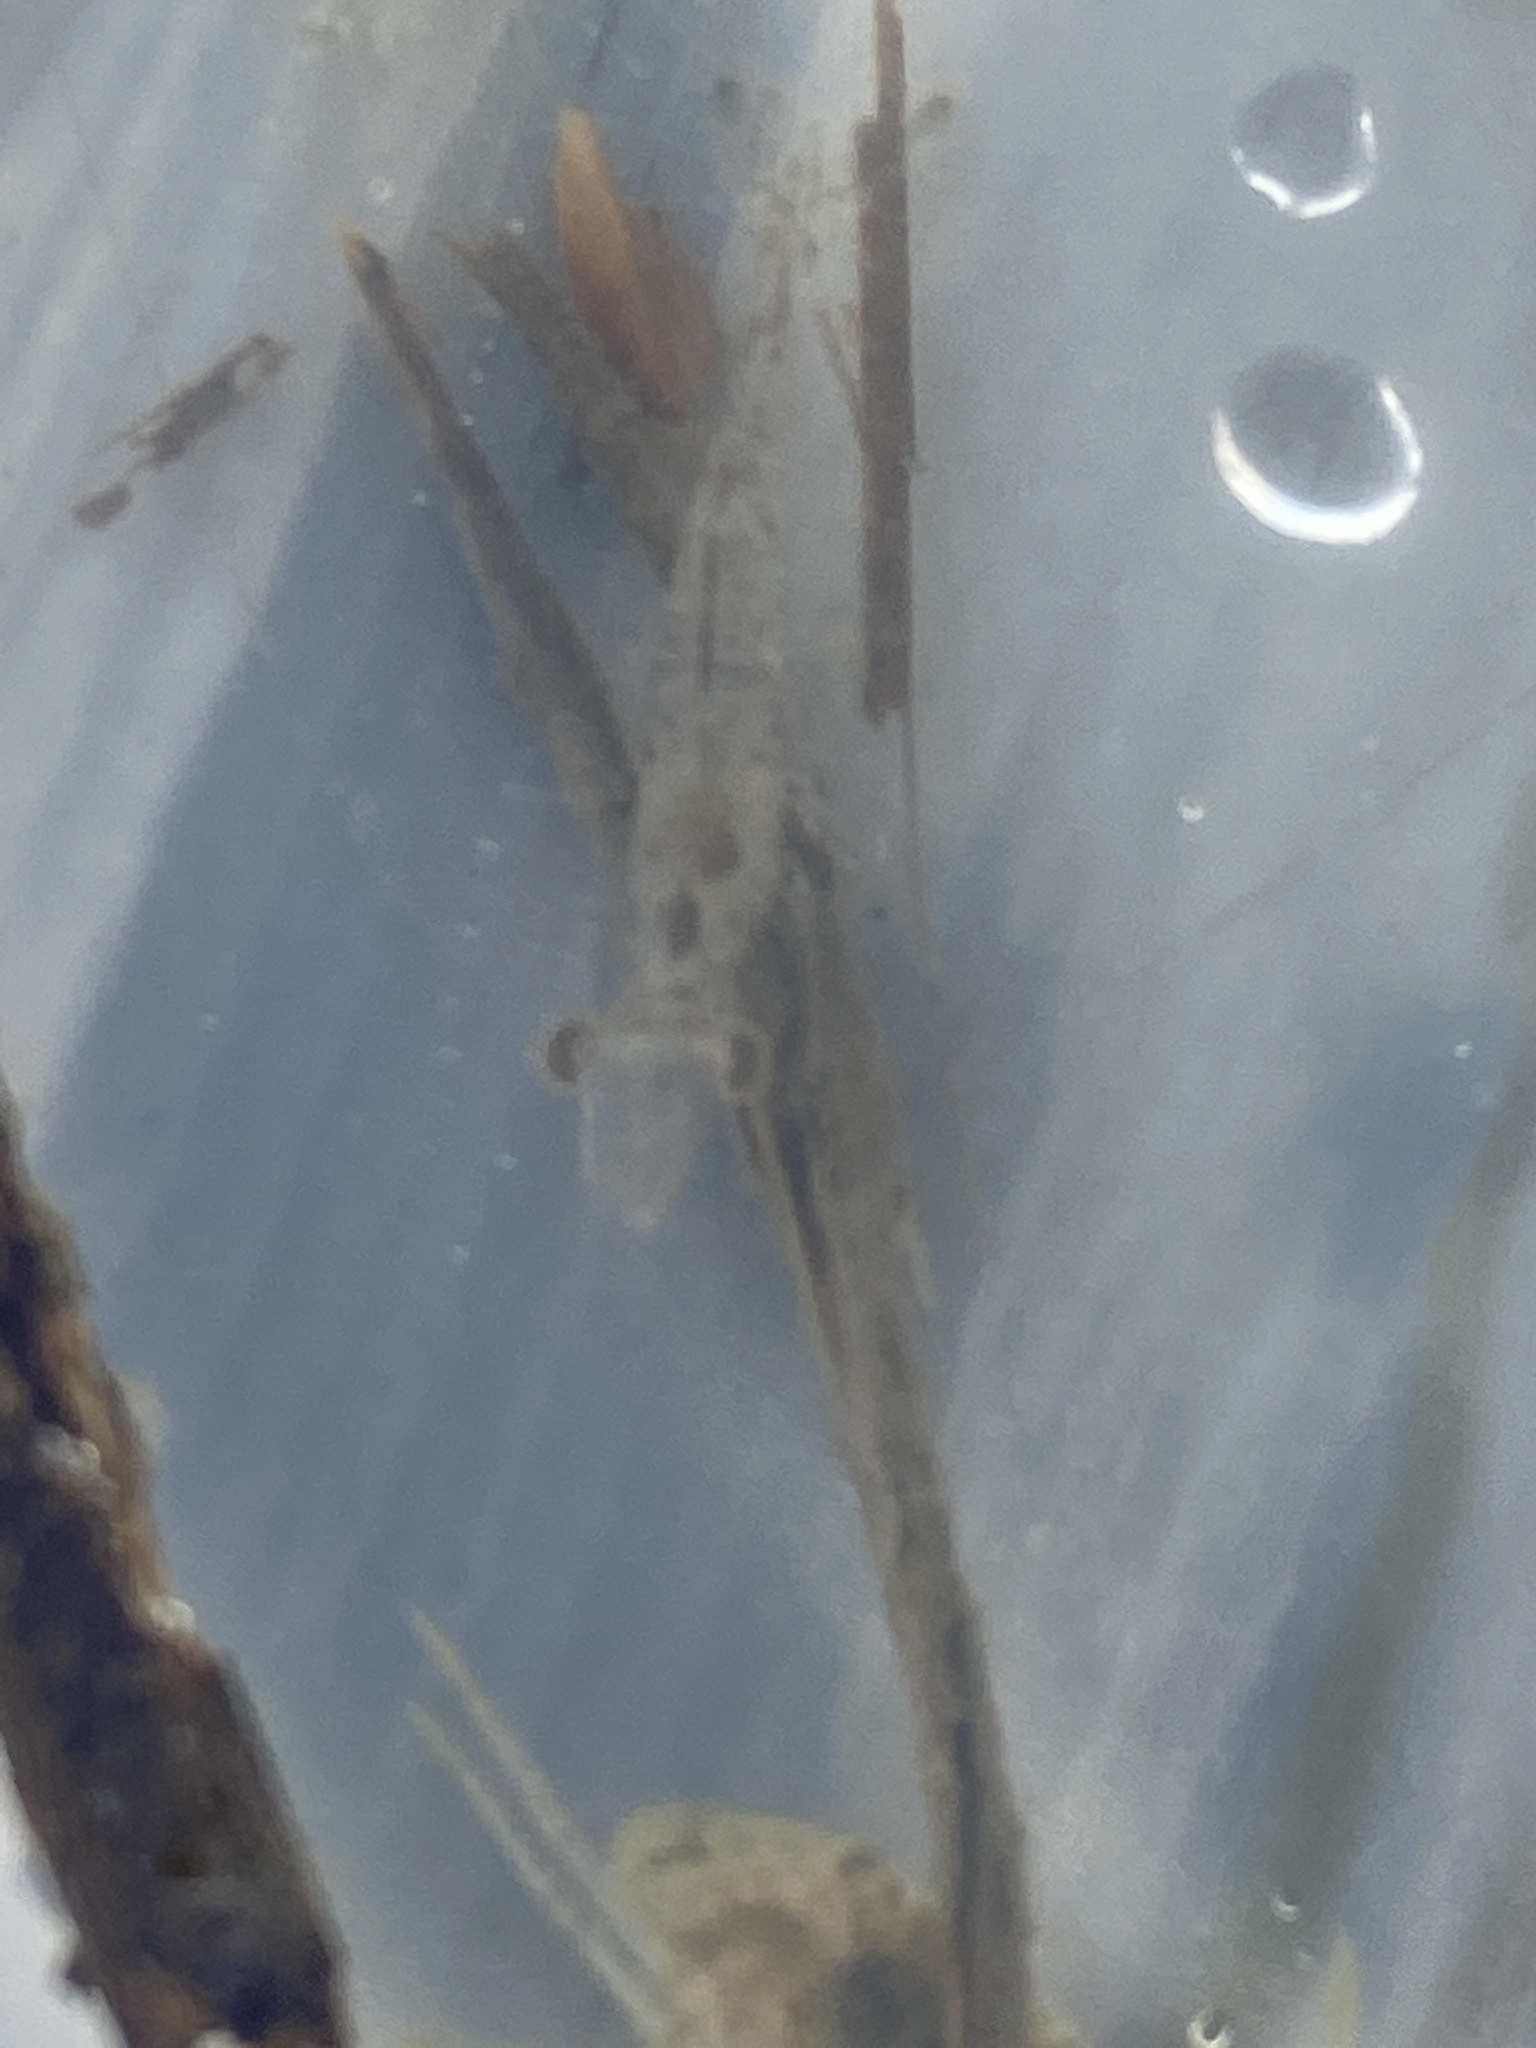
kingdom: Animalia
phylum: Arthropoda
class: Malacostraca
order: Decapoda
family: Penaeidae
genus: Penaeus
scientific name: Penaeus setiferus
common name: Northern white shrimp
